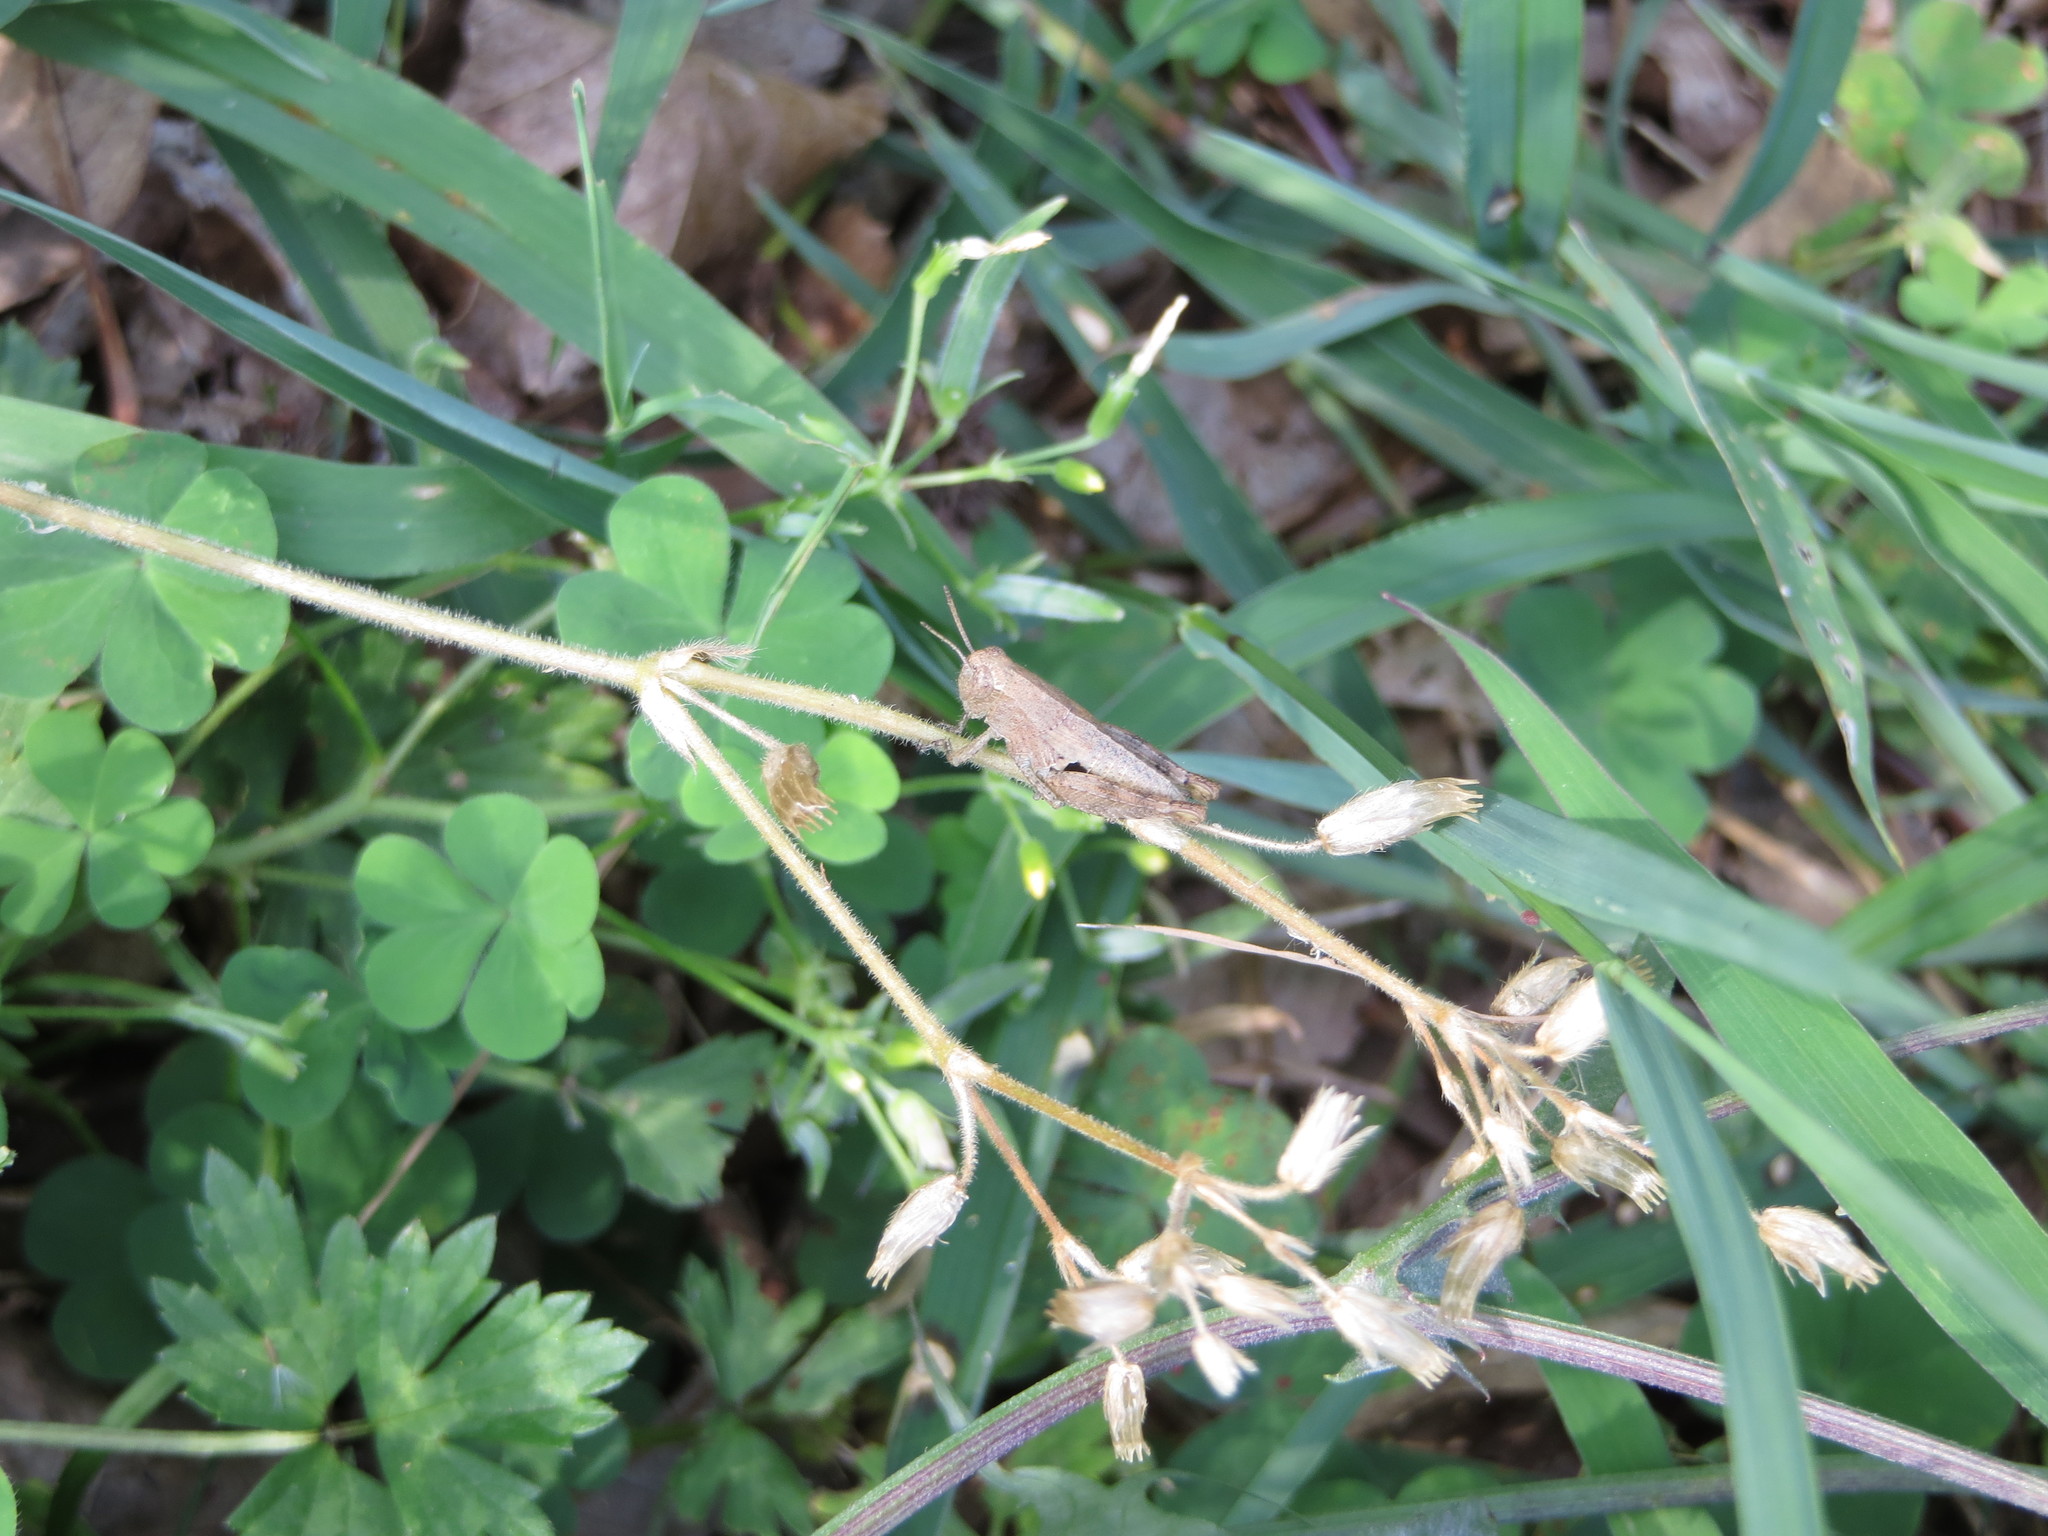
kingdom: Animalia
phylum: Arthropoda
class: Insecta
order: Orthoptera
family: Acrididae
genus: Pezotettix
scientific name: Pezotettix giornae
